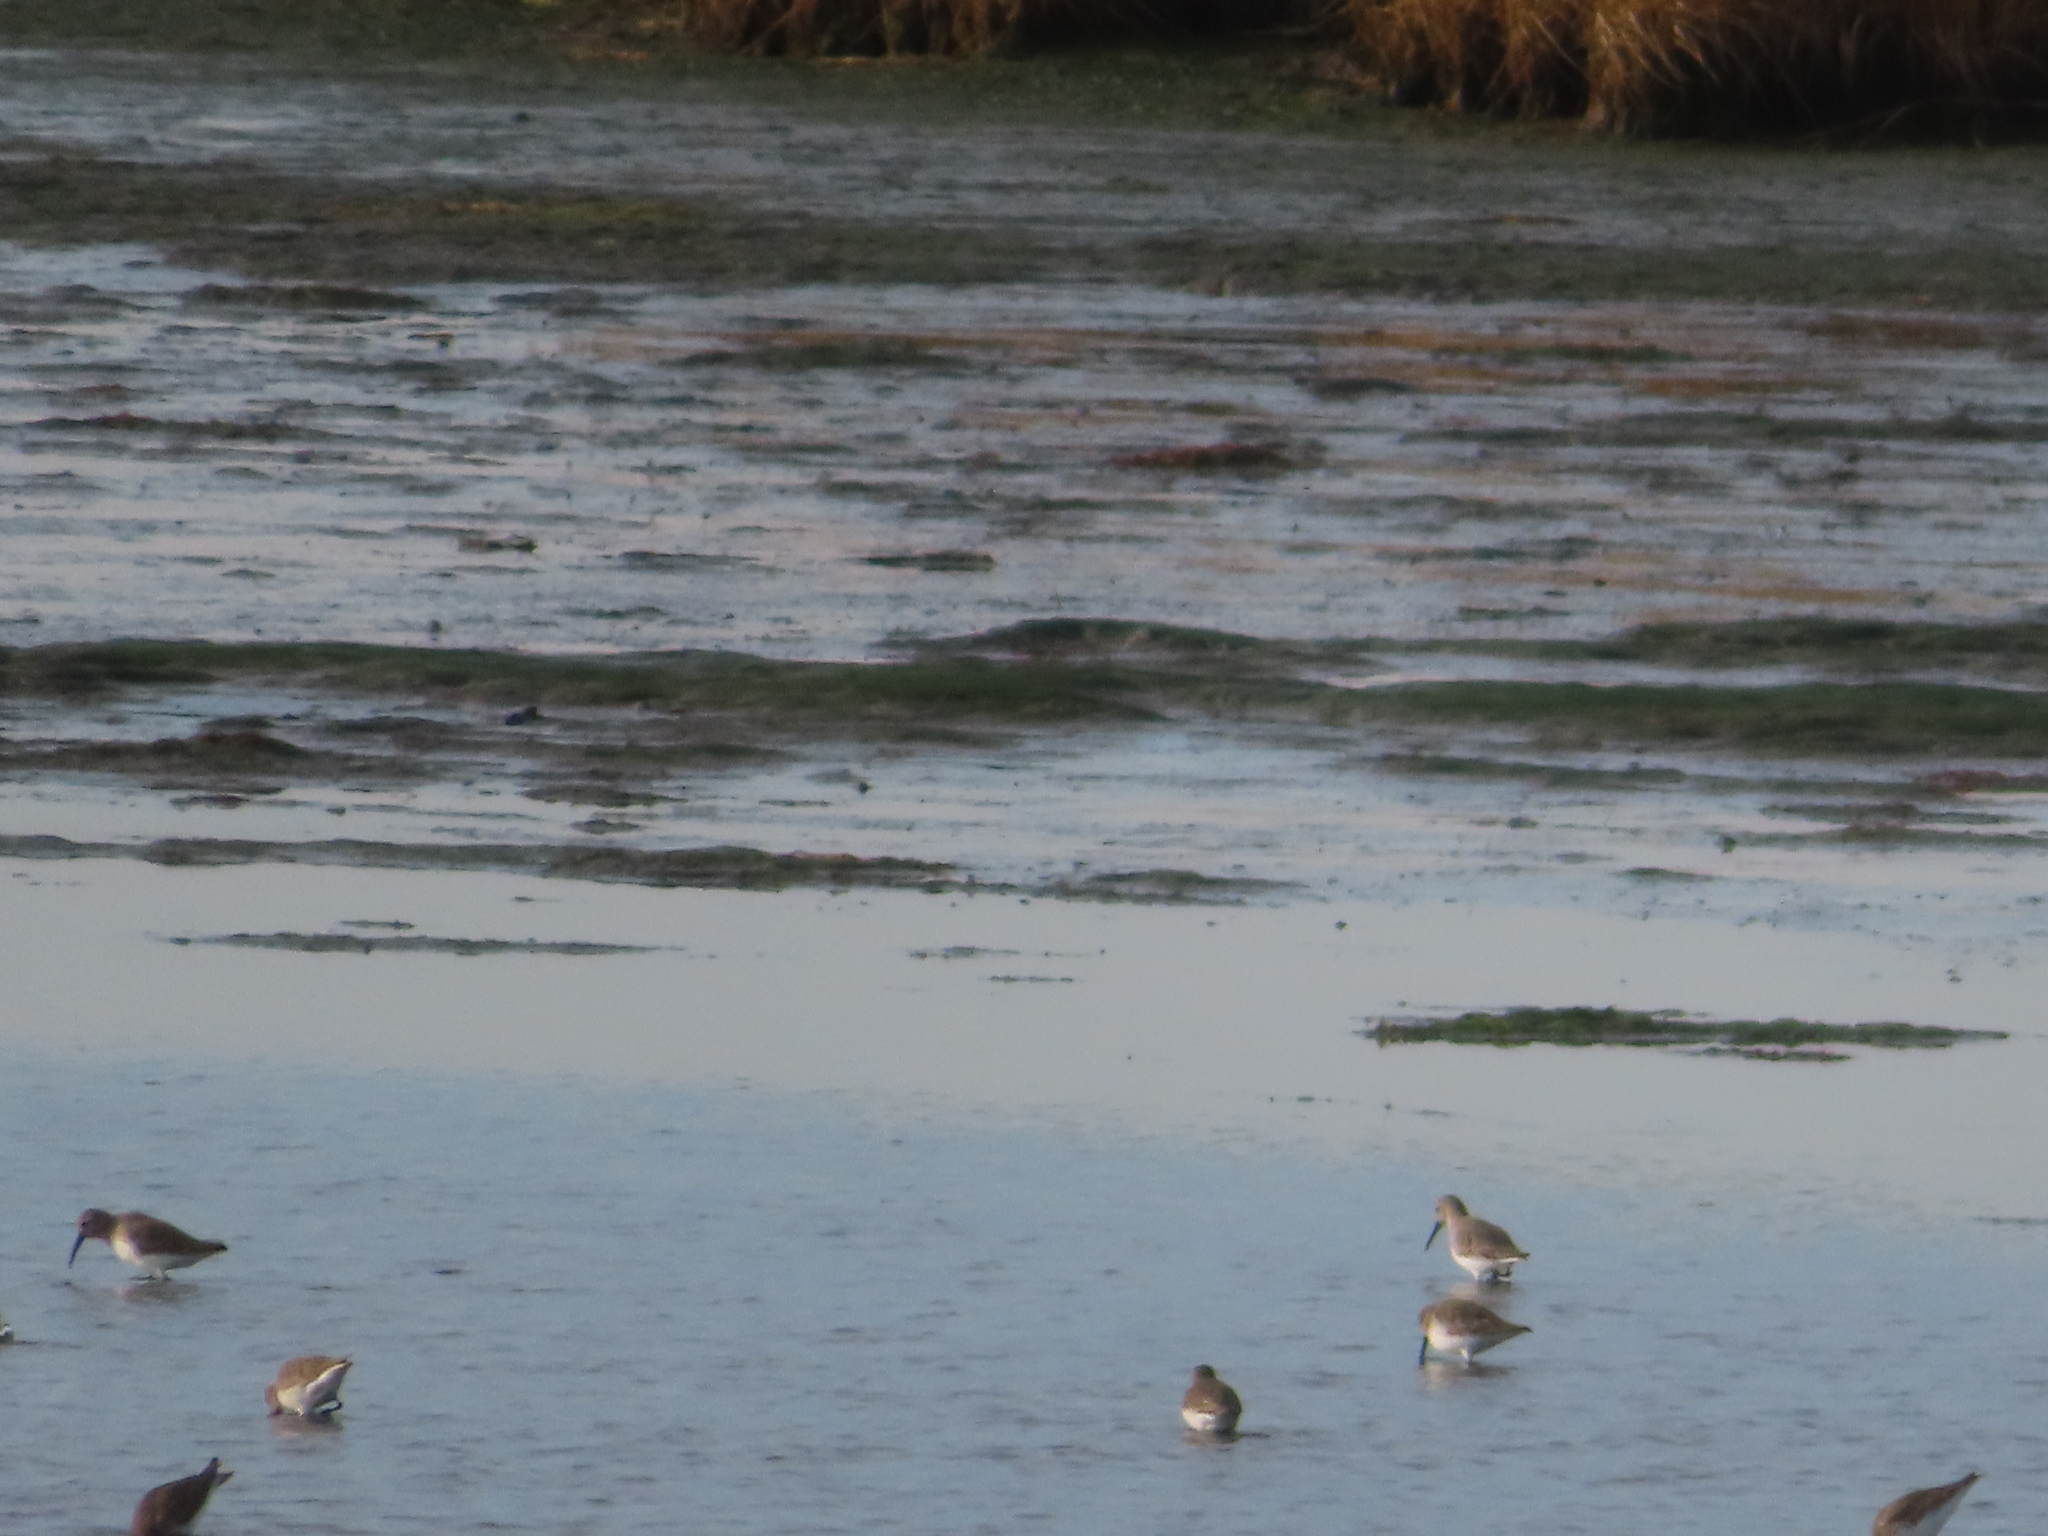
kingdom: Animalia
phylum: Chordata
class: Aves
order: Charadriiformes
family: Scolopacidae
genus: Calidris
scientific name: Calidris alpina
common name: Dunlin
